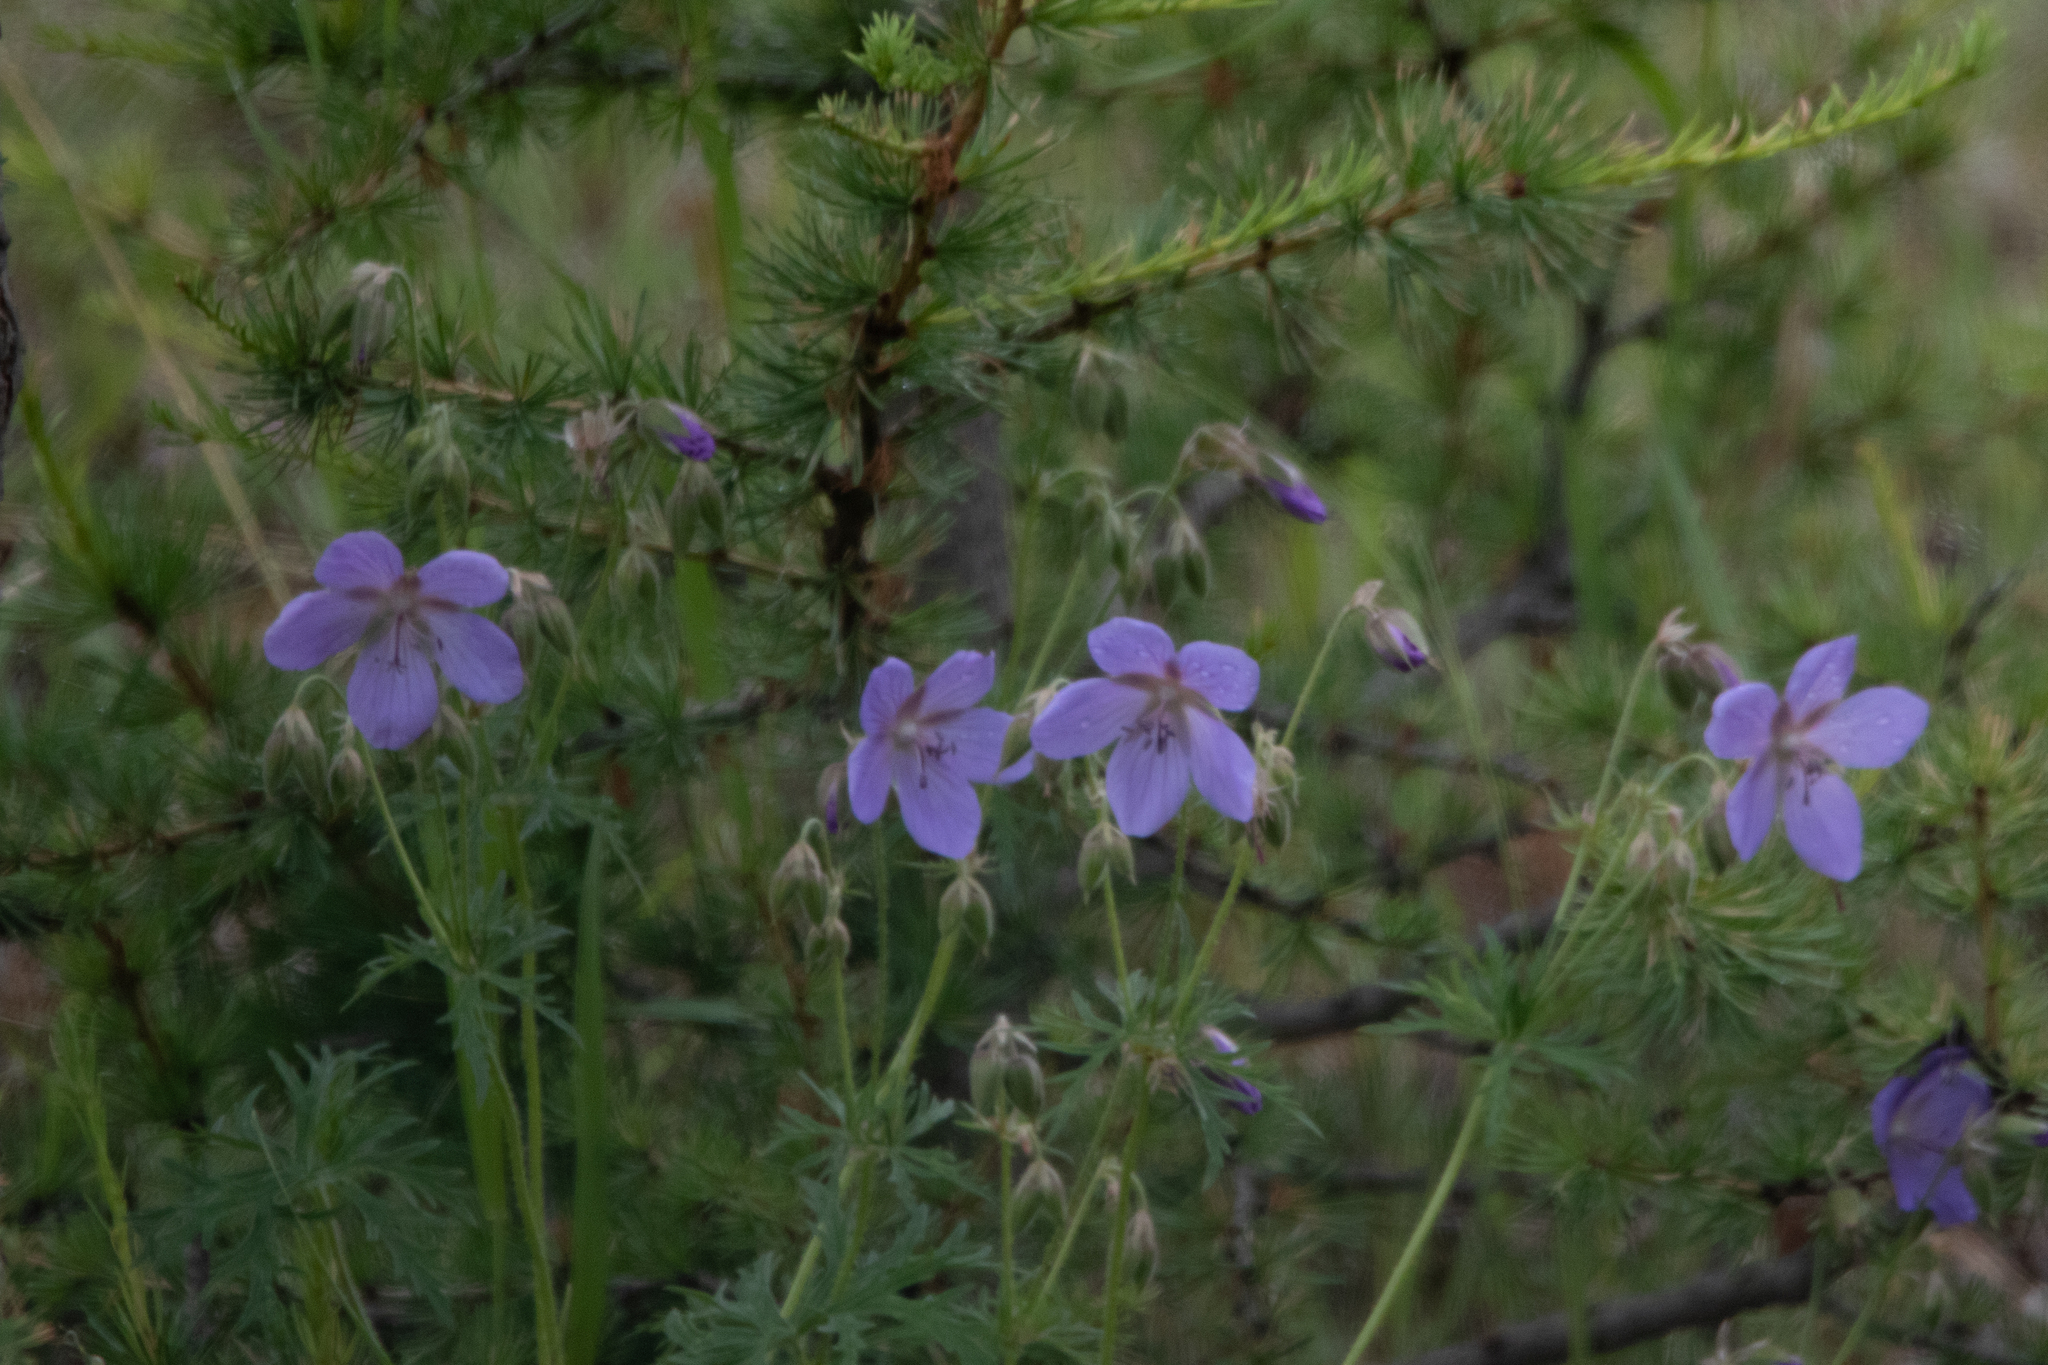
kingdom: Plantae
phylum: Tracheophyta
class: Magnoliopsida
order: Geraniales
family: Geraniaceae
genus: Geranium
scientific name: Geranium pratense
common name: Meadow crane's-bill
